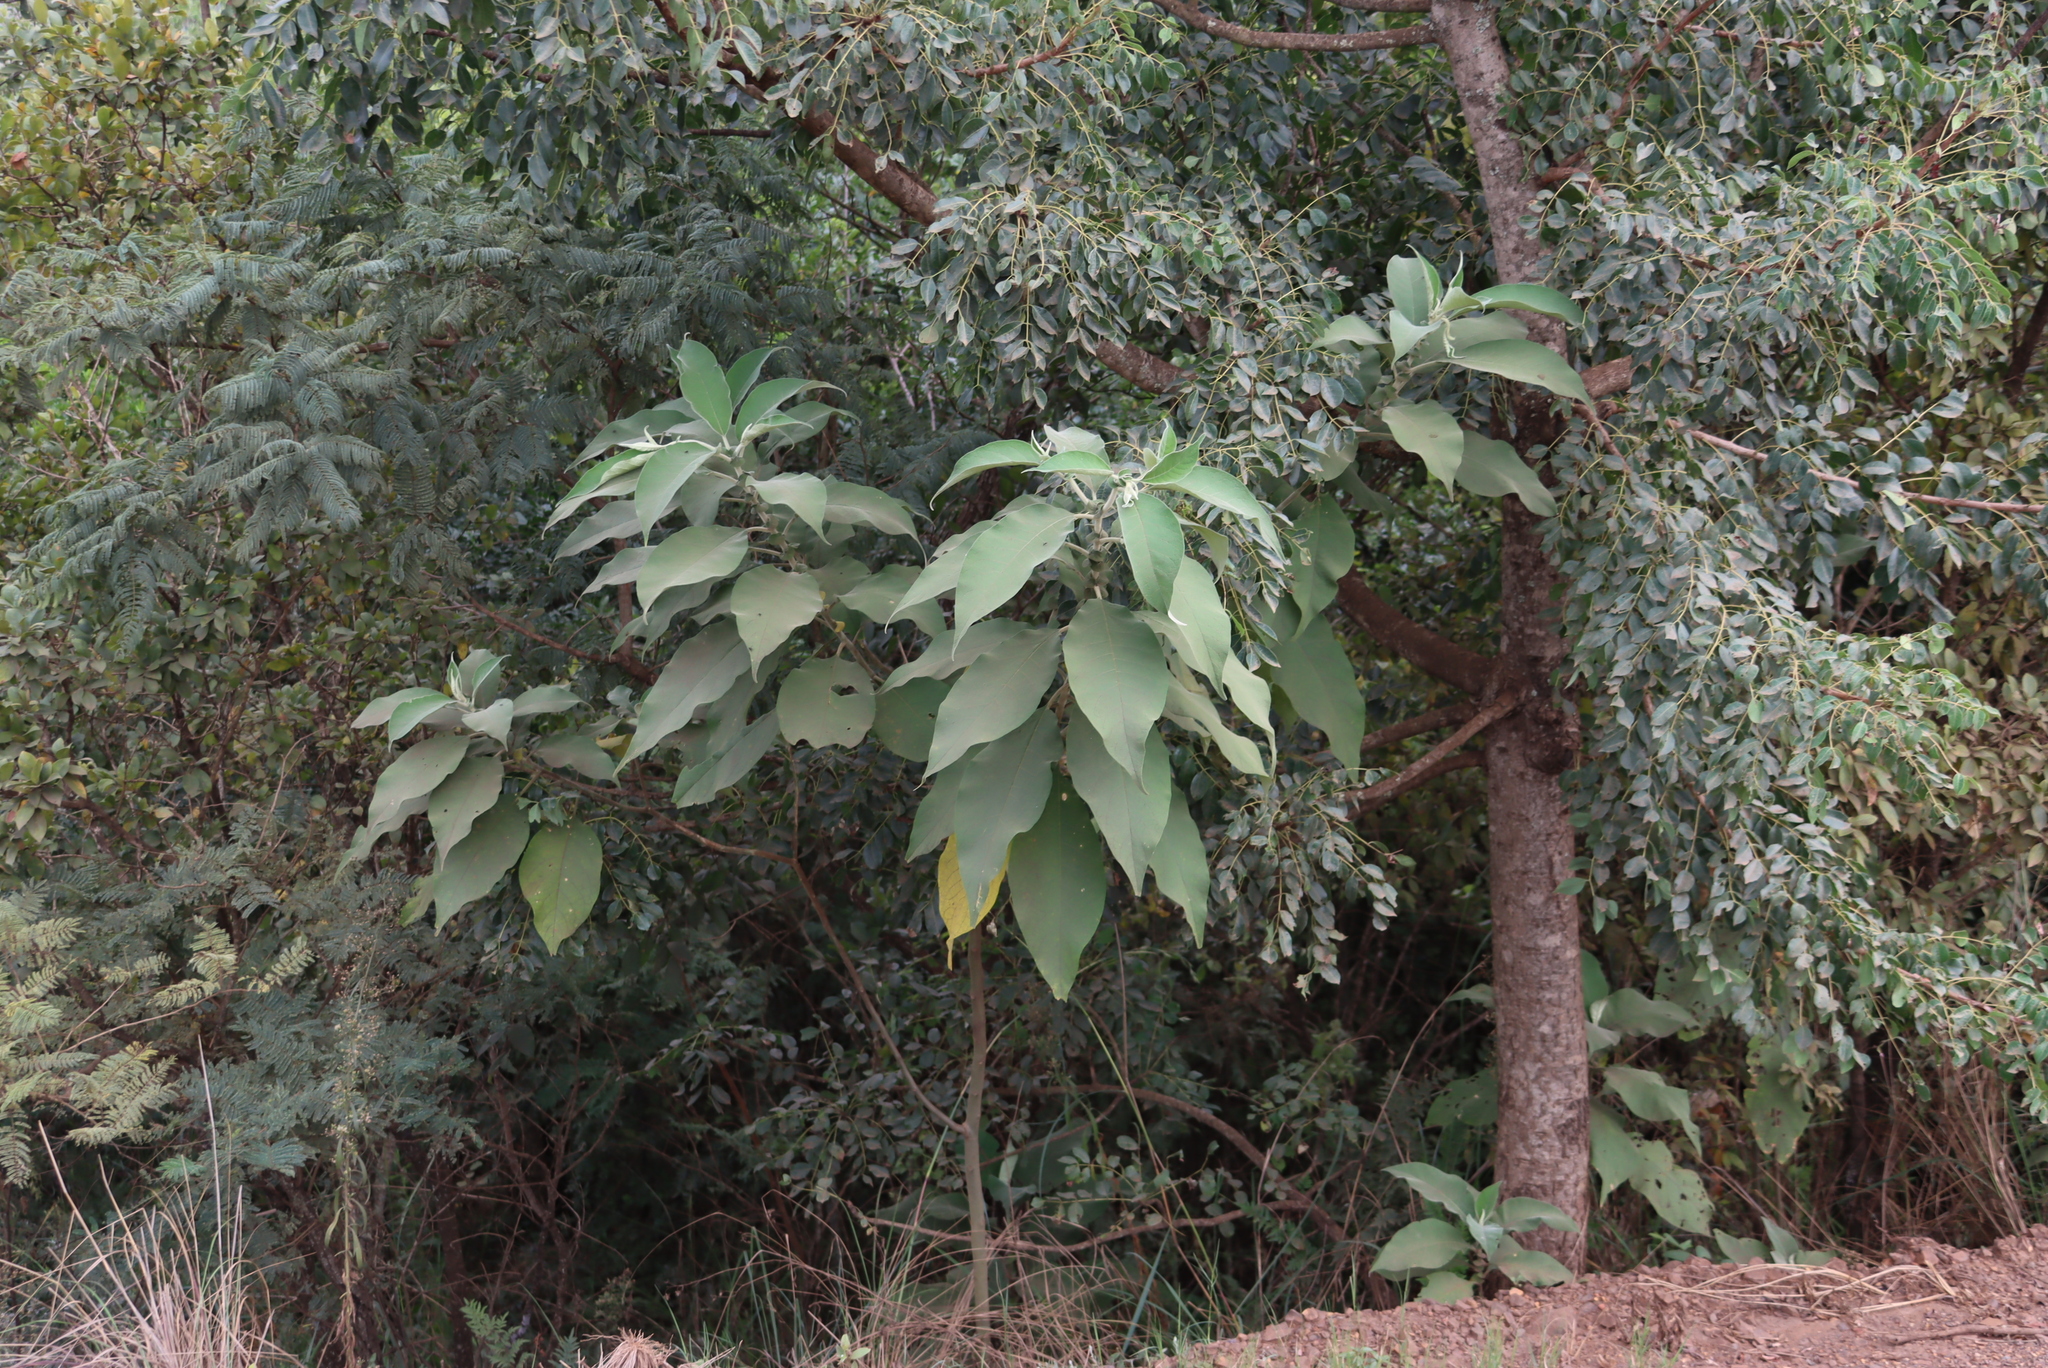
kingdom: Plantae
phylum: Tracheophyta
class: Magnoliopsida
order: Solanales
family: Solanaceae
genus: Solanum
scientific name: Solanum mauritianum
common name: Earleaf nightshade
